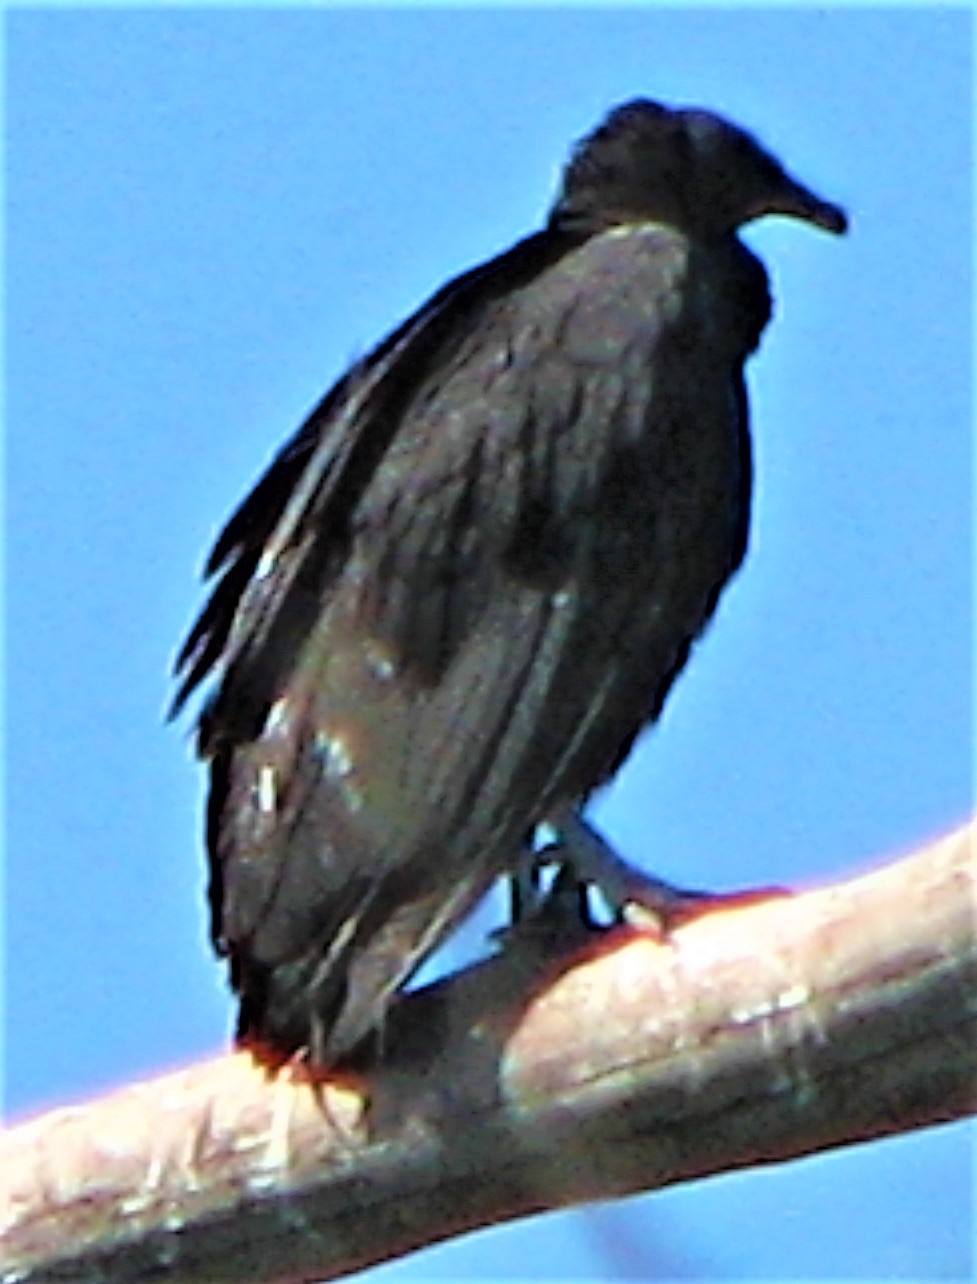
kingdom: Animalia
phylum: Chordata
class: Aves
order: Accipitriformes
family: Cathartidae
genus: Coragyps
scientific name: Coragyps atratus
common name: Black vulture
